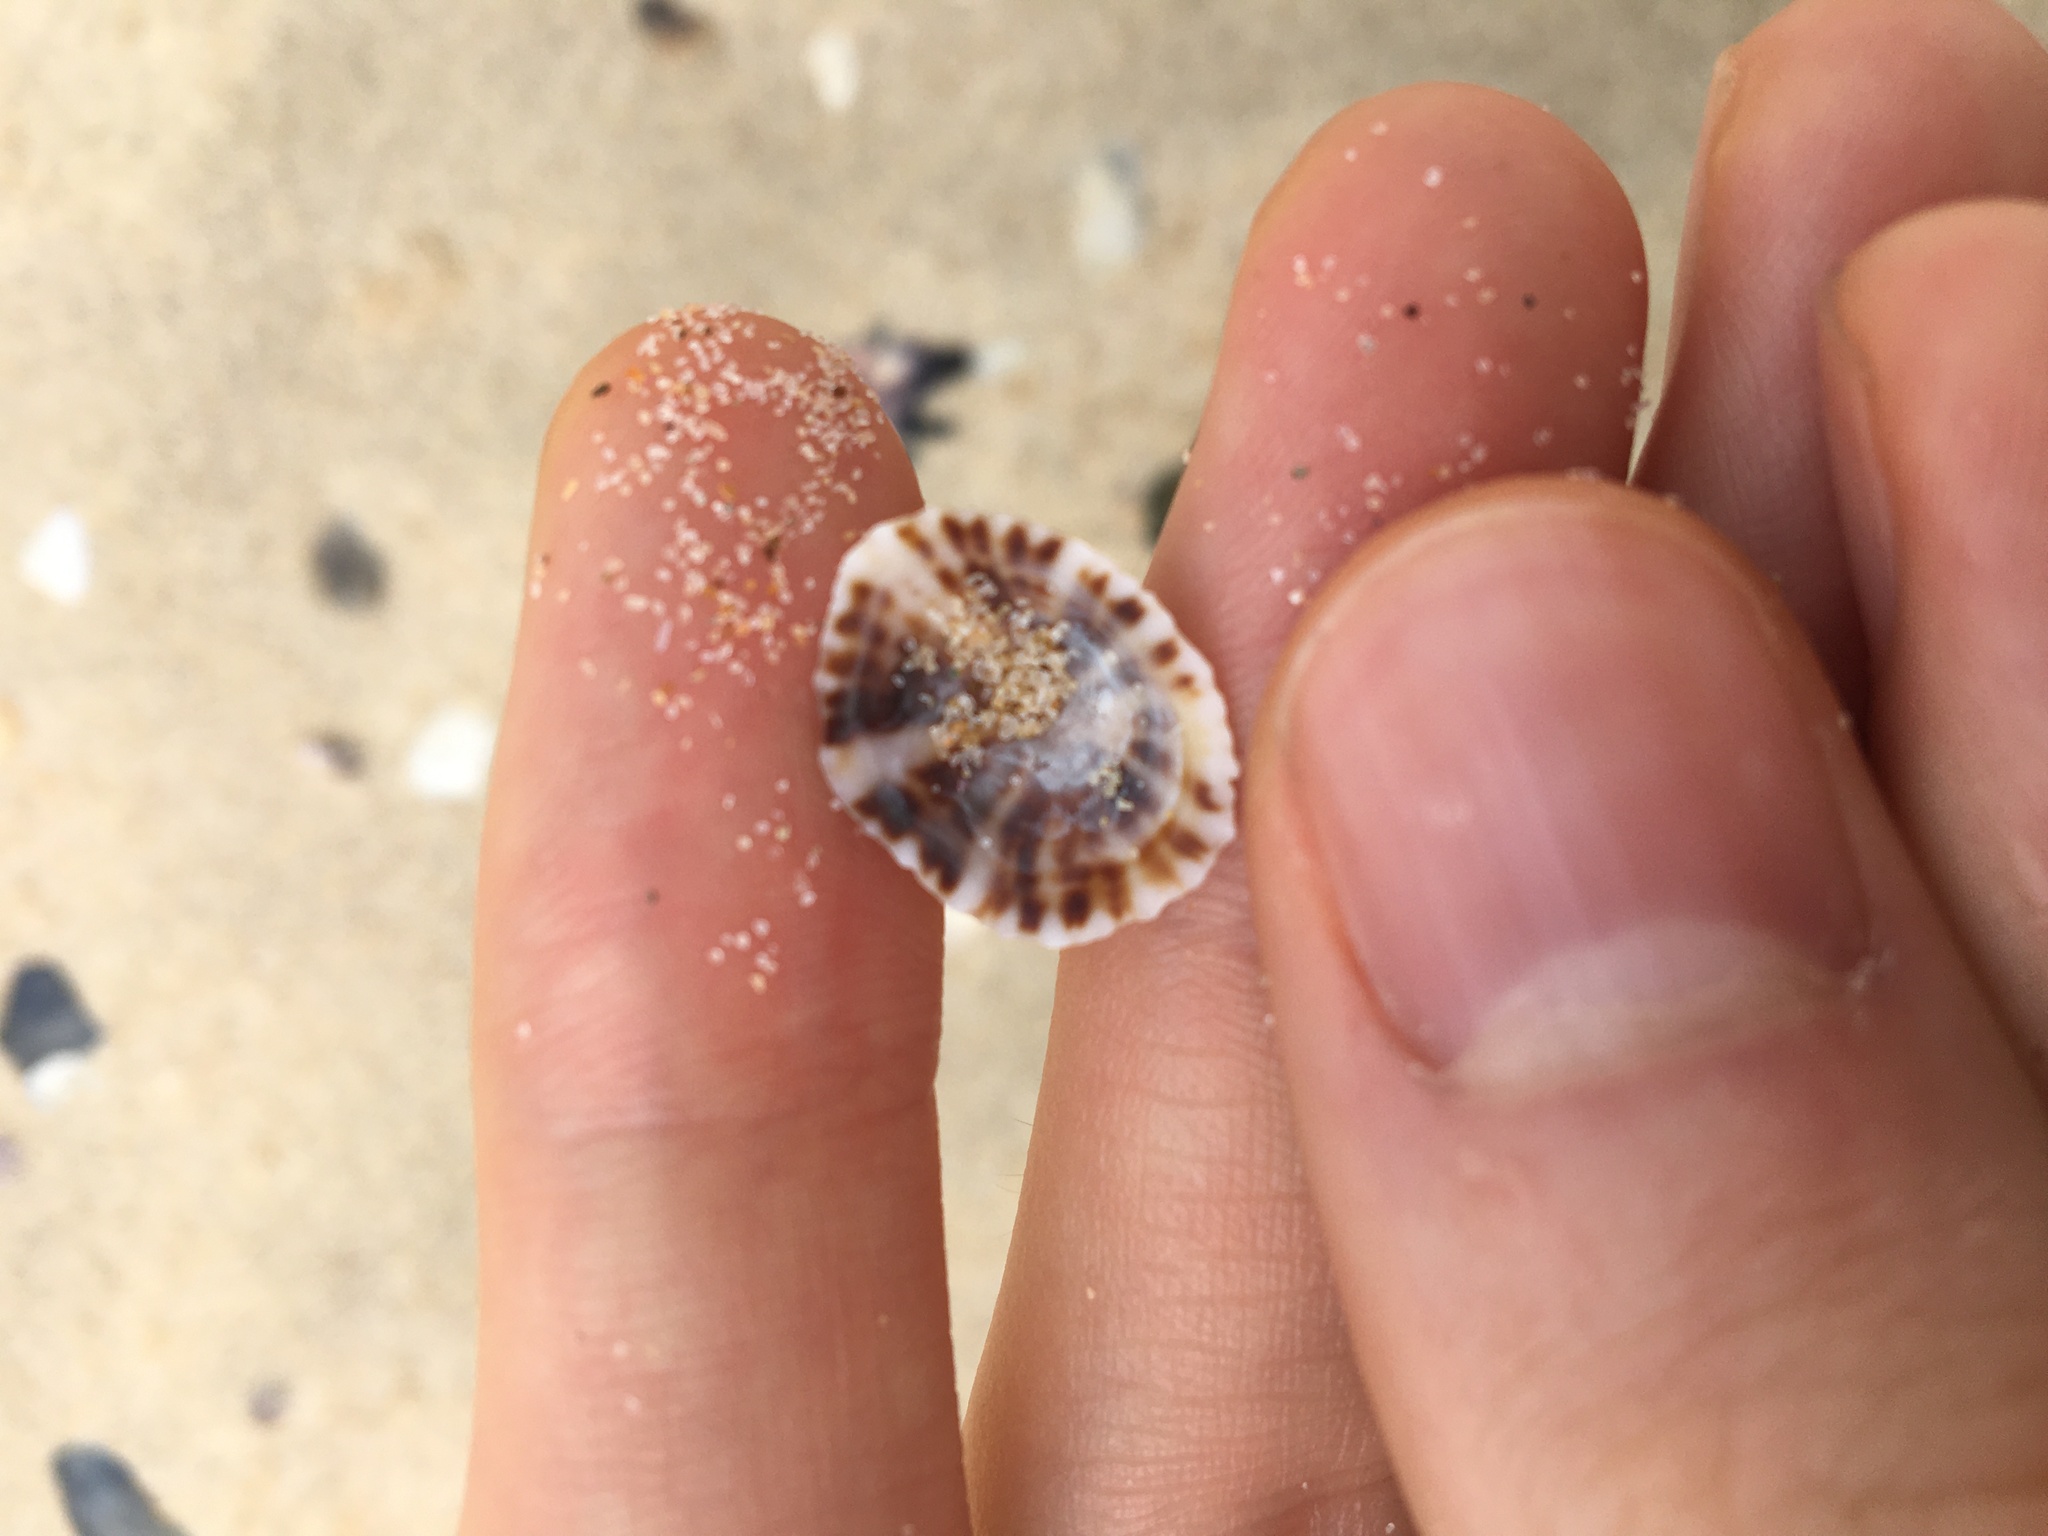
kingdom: Animalia
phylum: Mollusca
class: Gastropoda
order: Siphonariida
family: Siphonariidae
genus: Siphonaria
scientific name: Siphonaria denticulata
